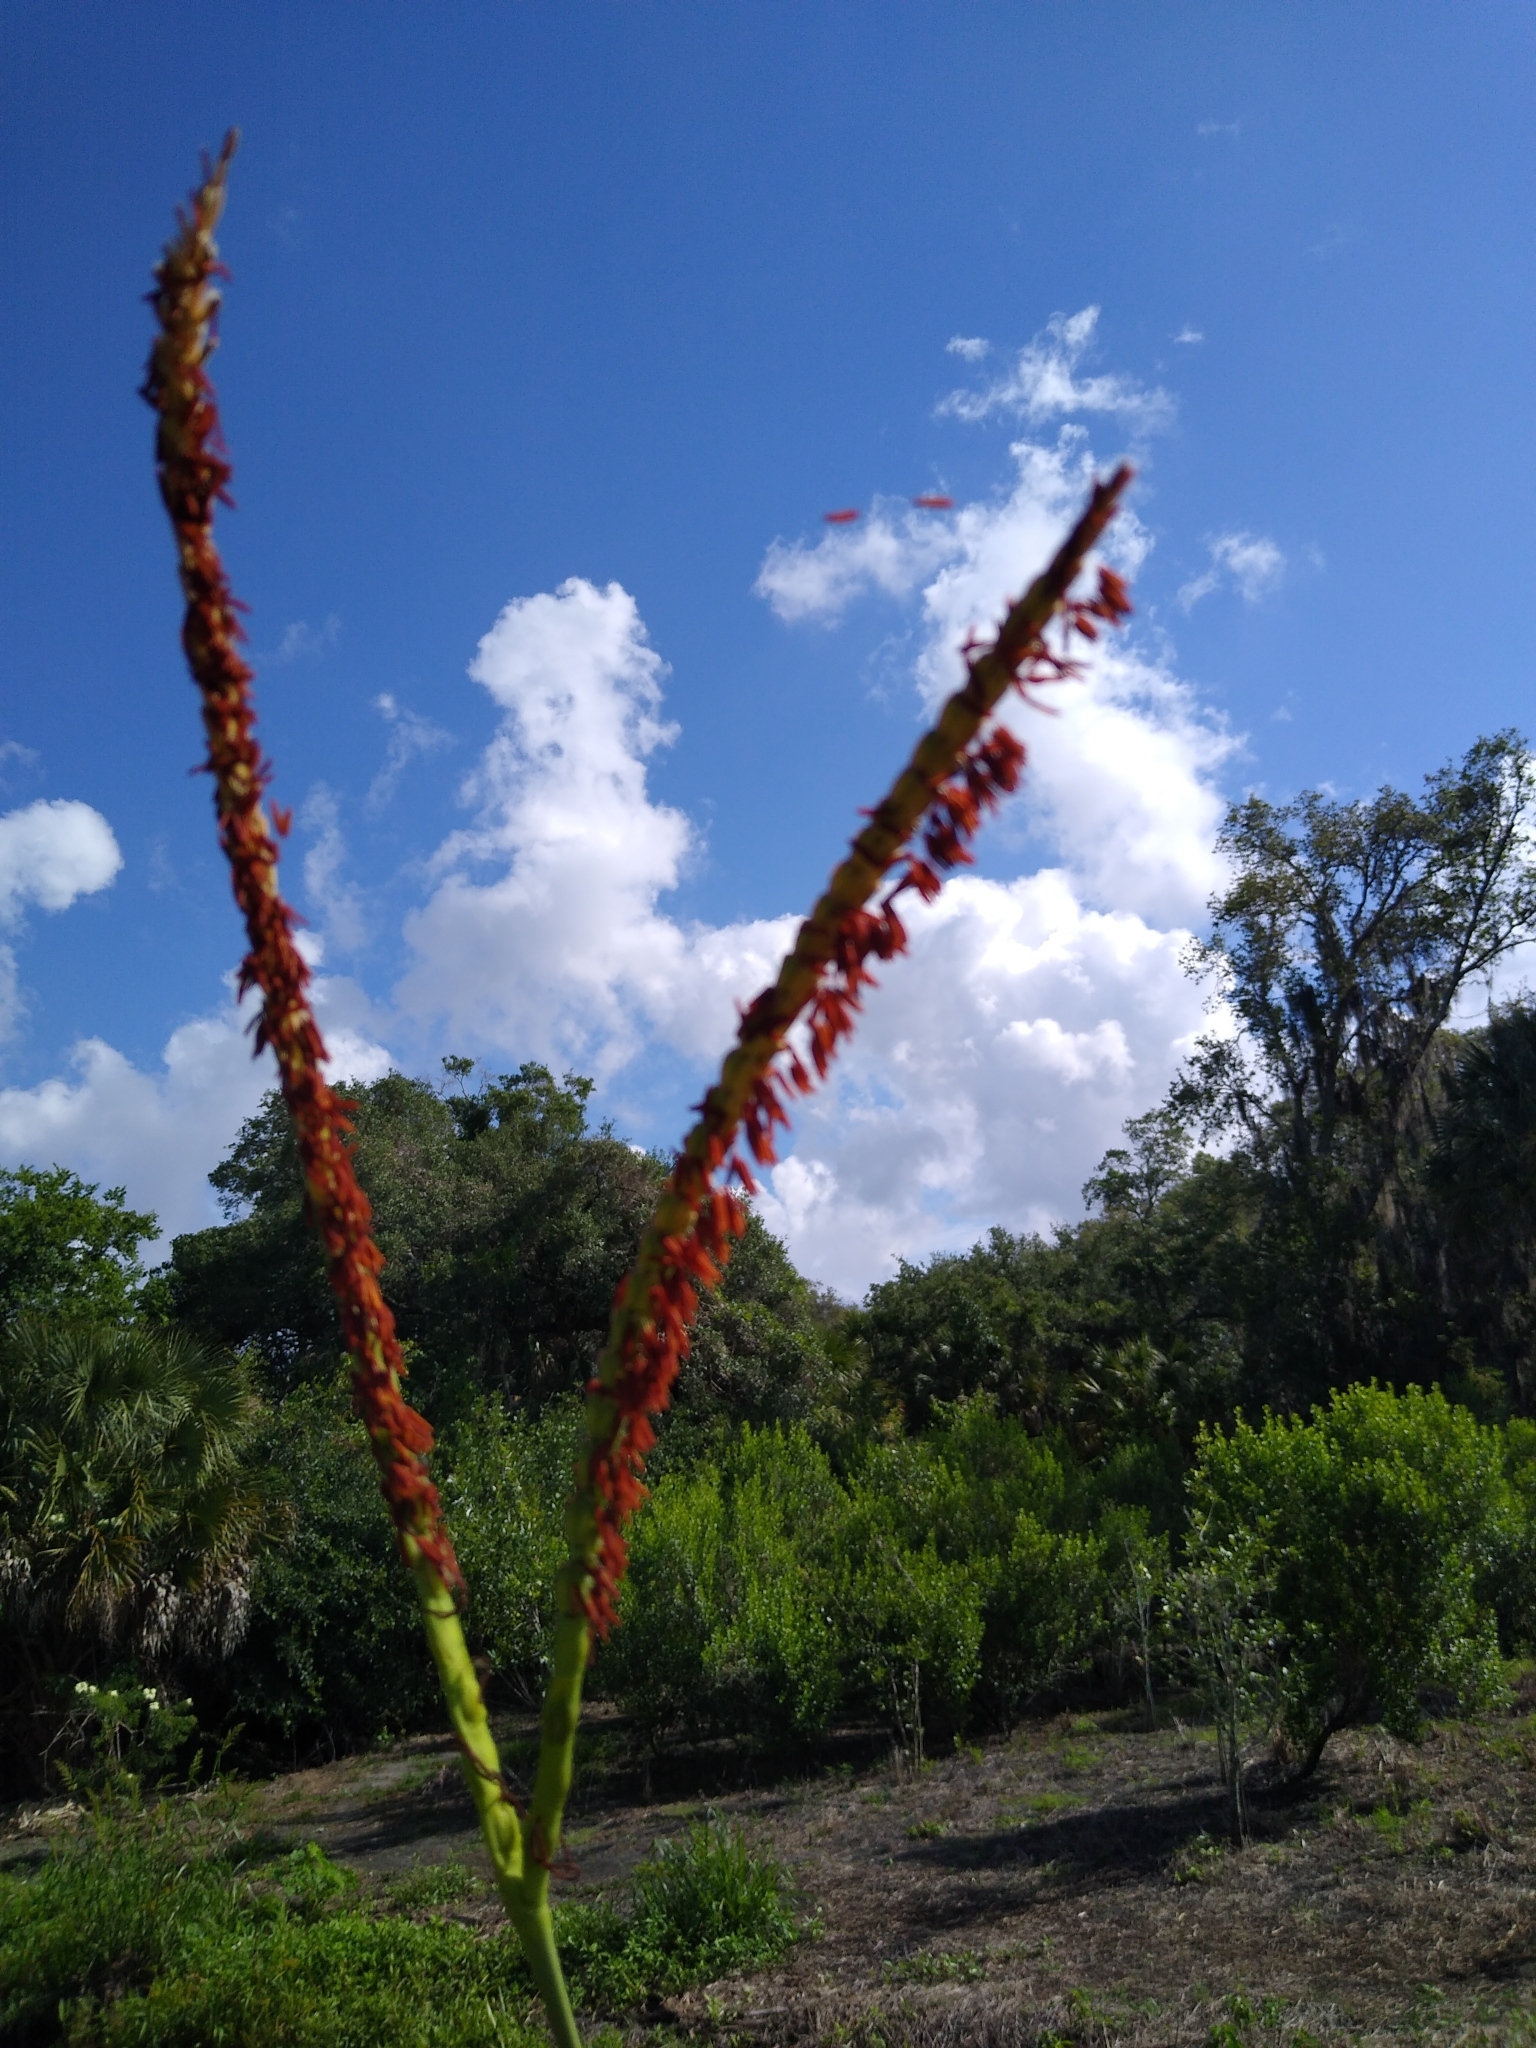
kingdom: Plantae
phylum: Tracheophyta
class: Liliopsida
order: Poales
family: Poaceae
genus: Tripsacum
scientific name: Tripsacum dactyloides
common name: Buffalo-grass
